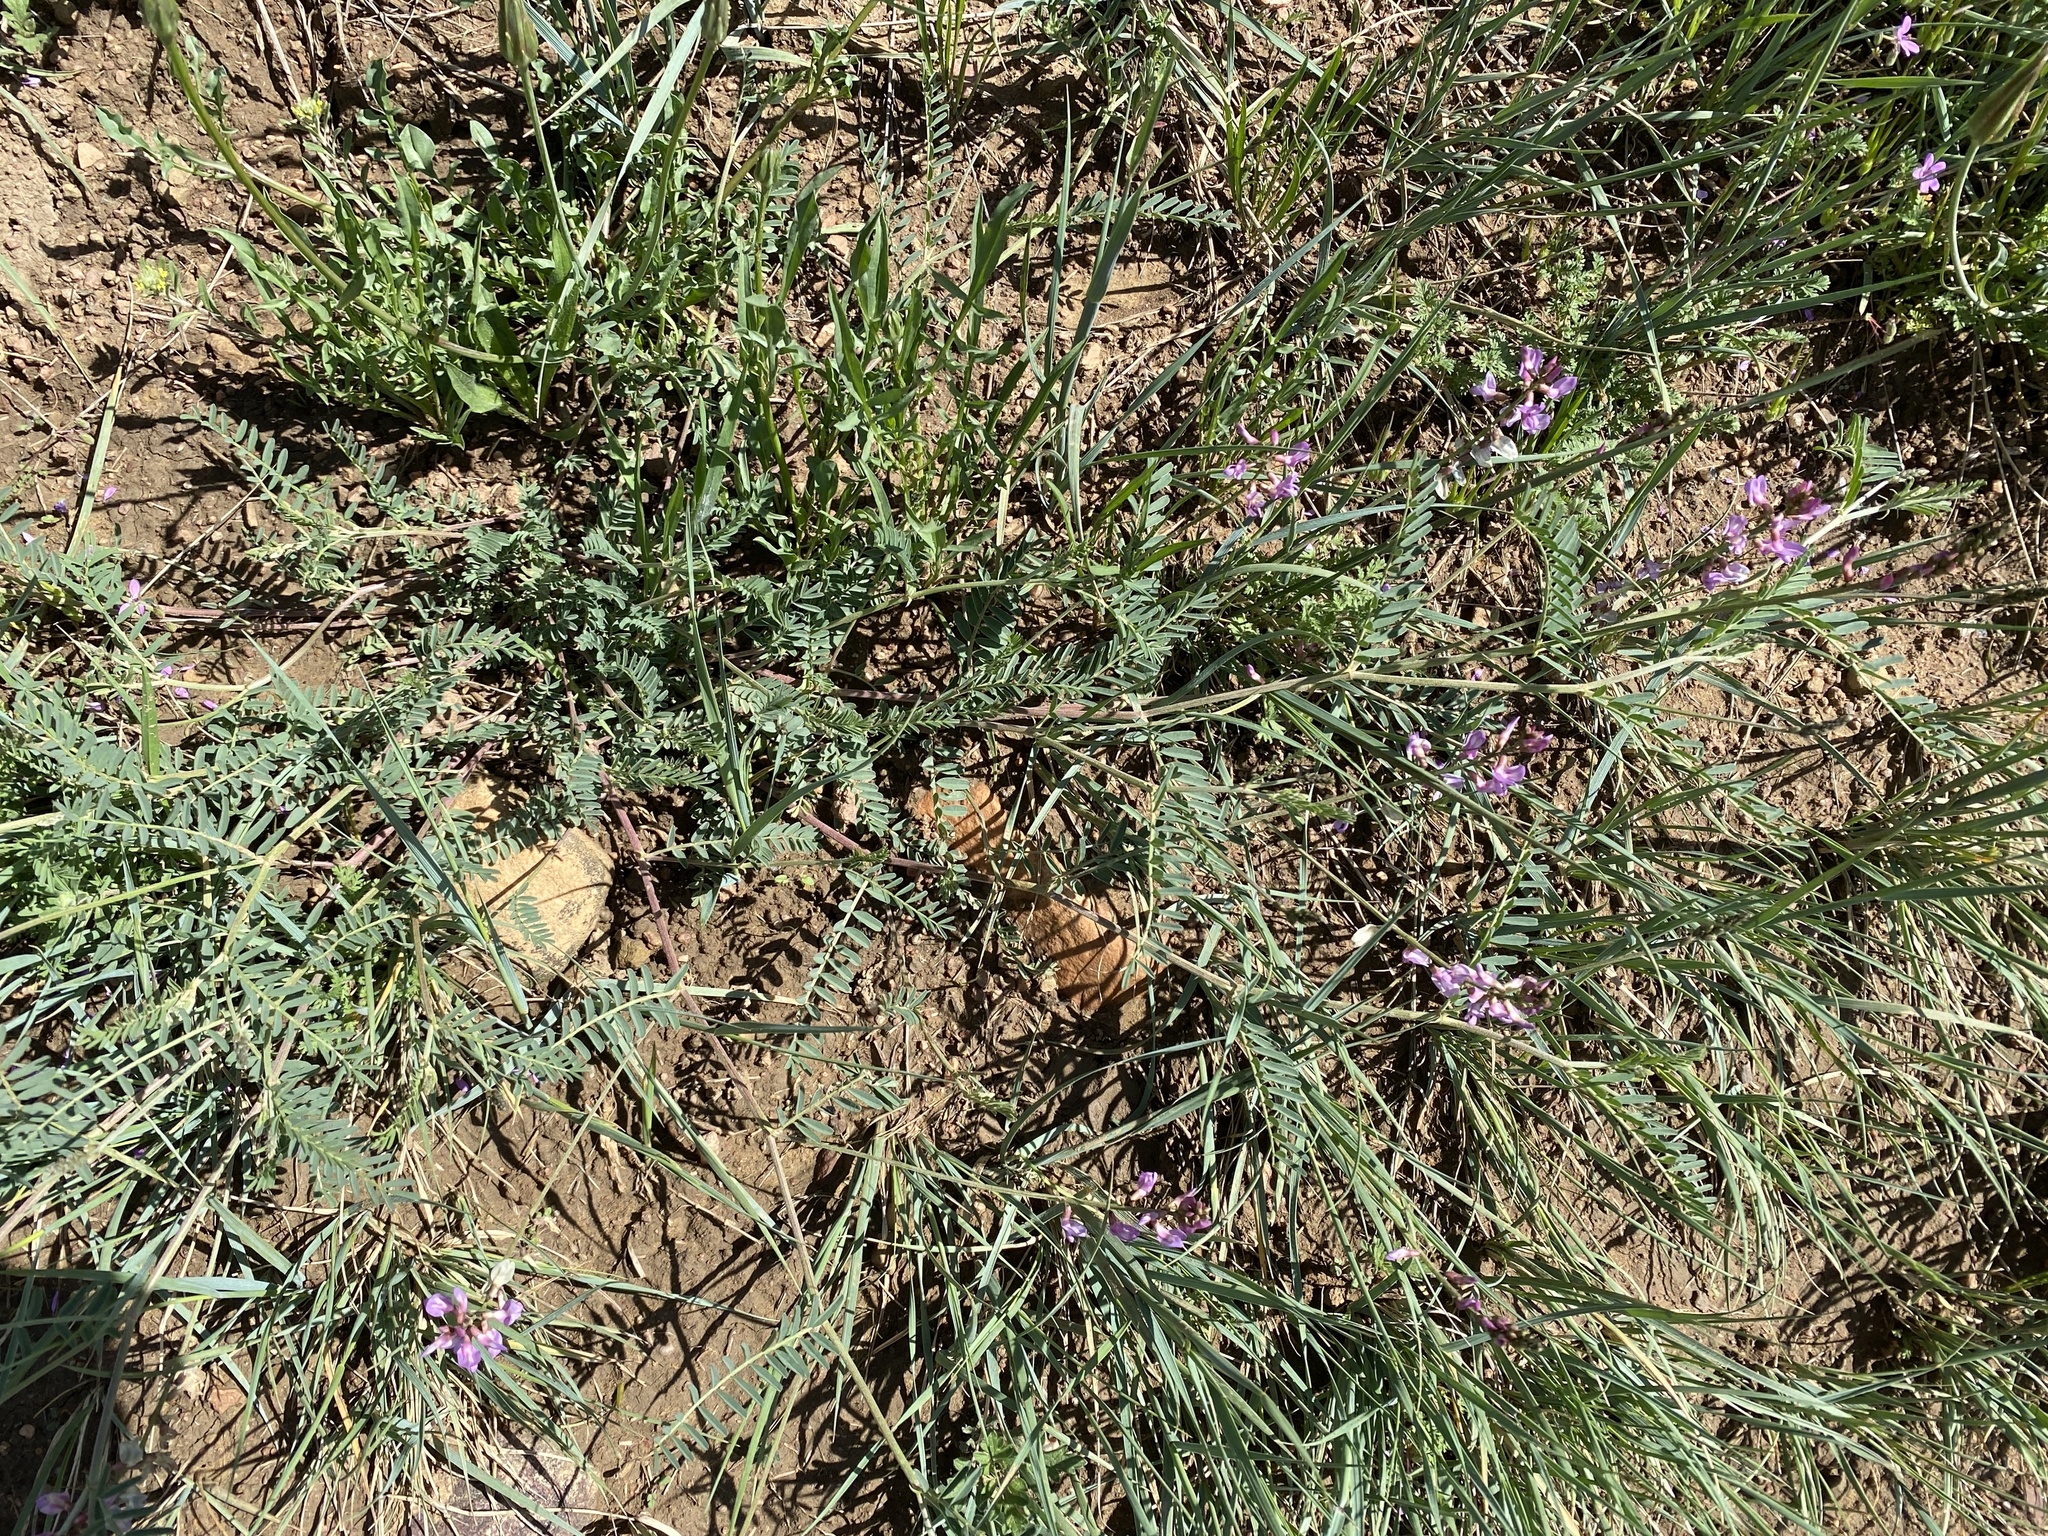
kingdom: Plantae
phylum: Tracheophyta
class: Magnoliopsida
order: Fabales
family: Fabaceae
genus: Astragalus
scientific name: Astragalus flexuosus
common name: Pliant milk-vetch
